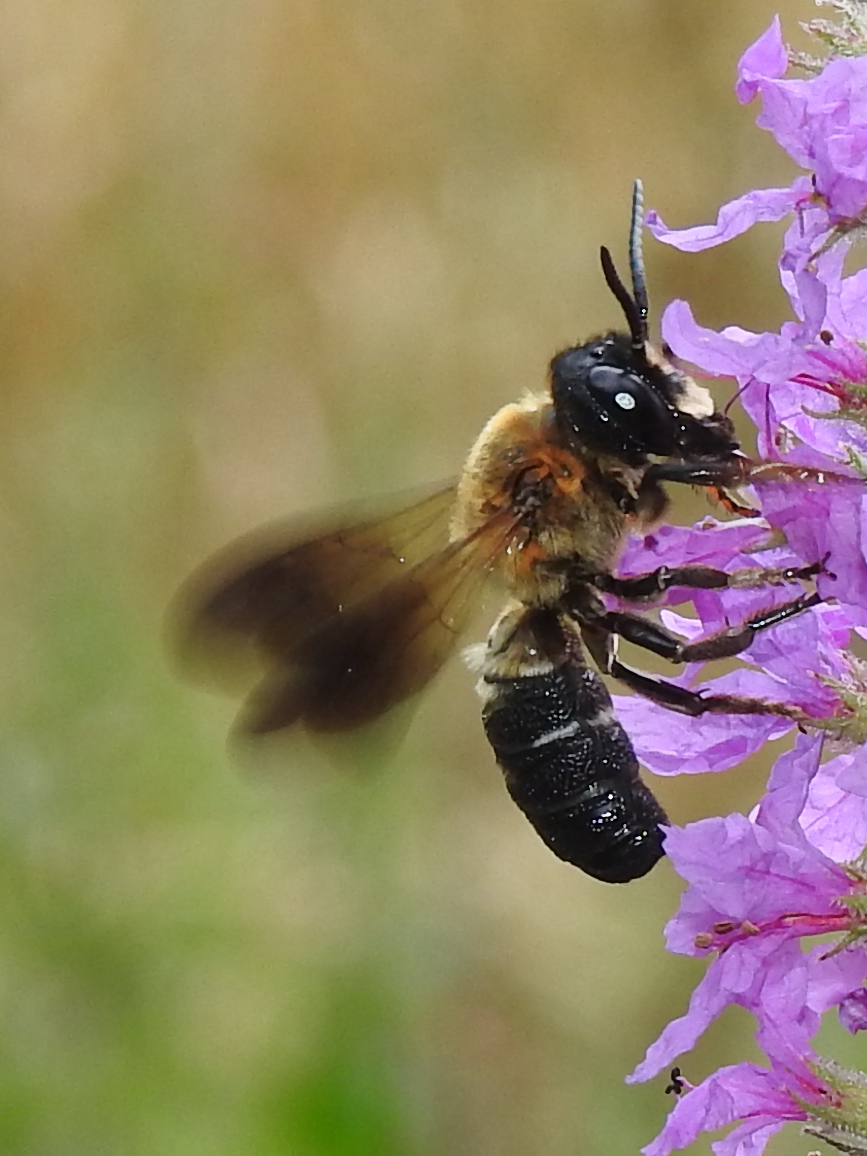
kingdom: Animalia
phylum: Arthropoda
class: Insecta
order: Hymenoptera
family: Megachilidae
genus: Megachile
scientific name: Megachile sculpturalis
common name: Sculptured resin bee
